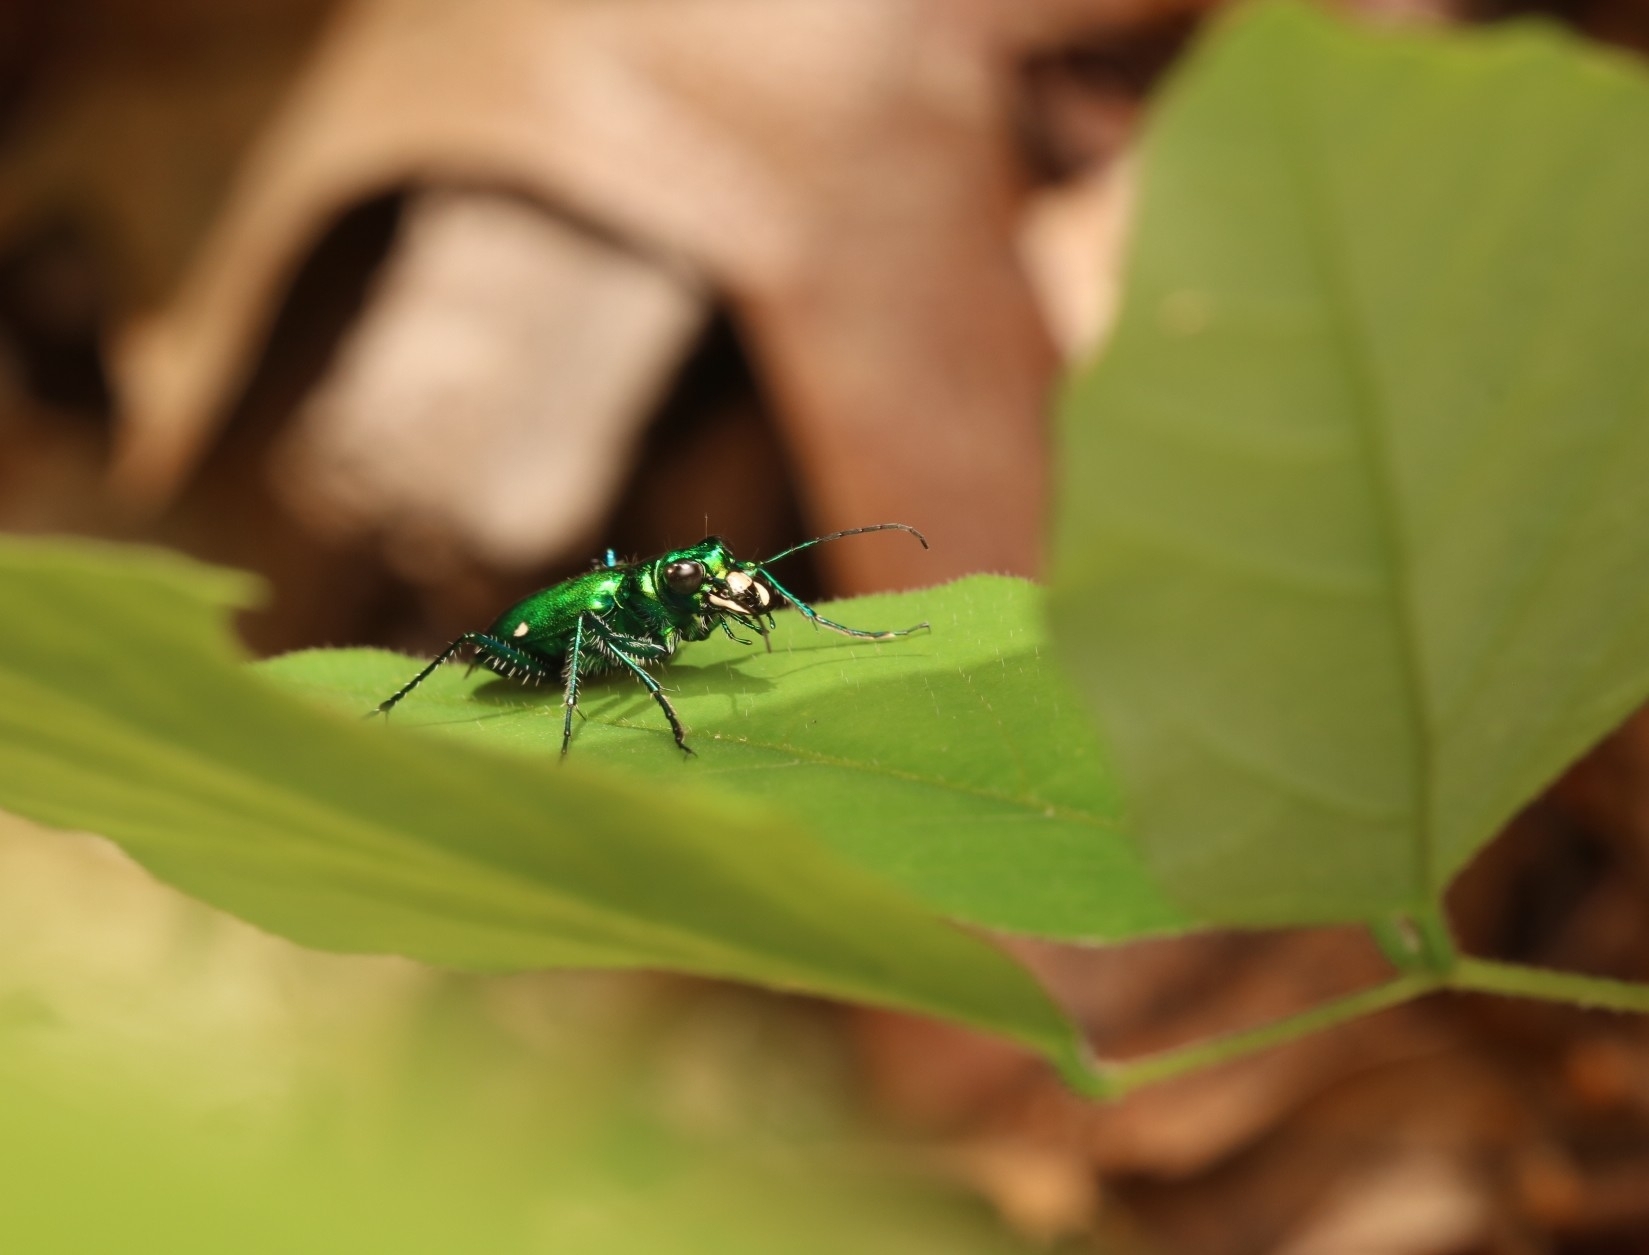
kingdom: Animalia
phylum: Arthropoda
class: Insecta
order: Coleoptera
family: Carabidae
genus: Cicindela
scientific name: Cicindela sexguttata
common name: Six-spotted tiger beetle
